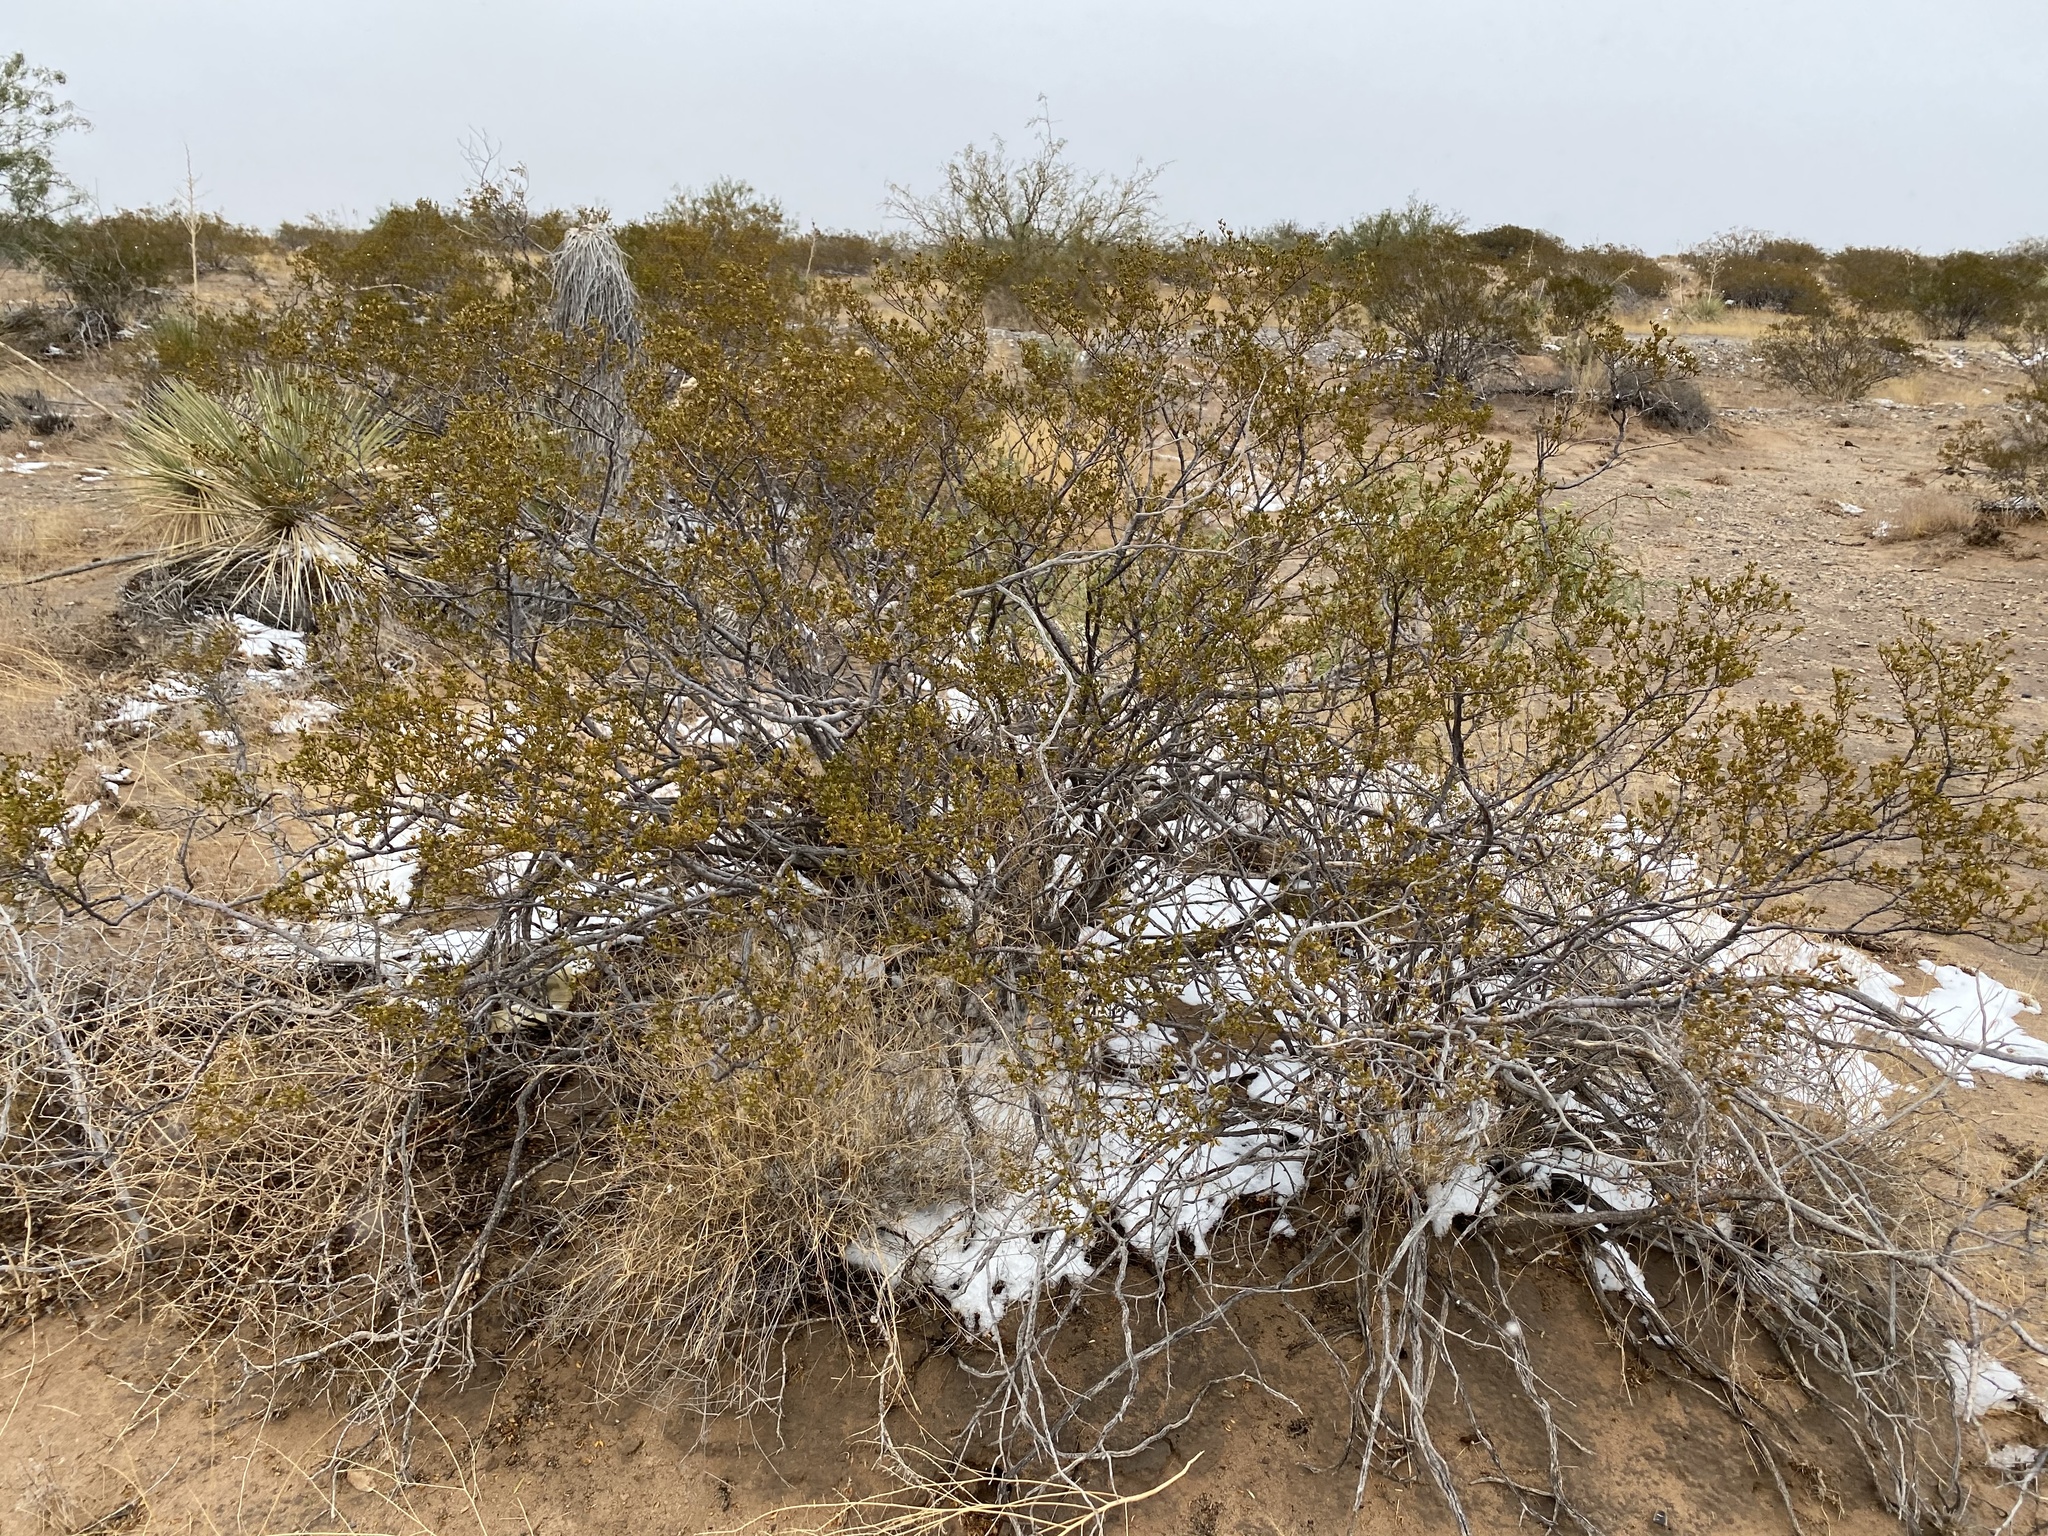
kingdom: Plantae
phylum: Tracheophyta
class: Magnoliopsida
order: Zygophyllales
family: Zygophyllaceae
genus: Larrea
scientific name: Larrea tridentata
